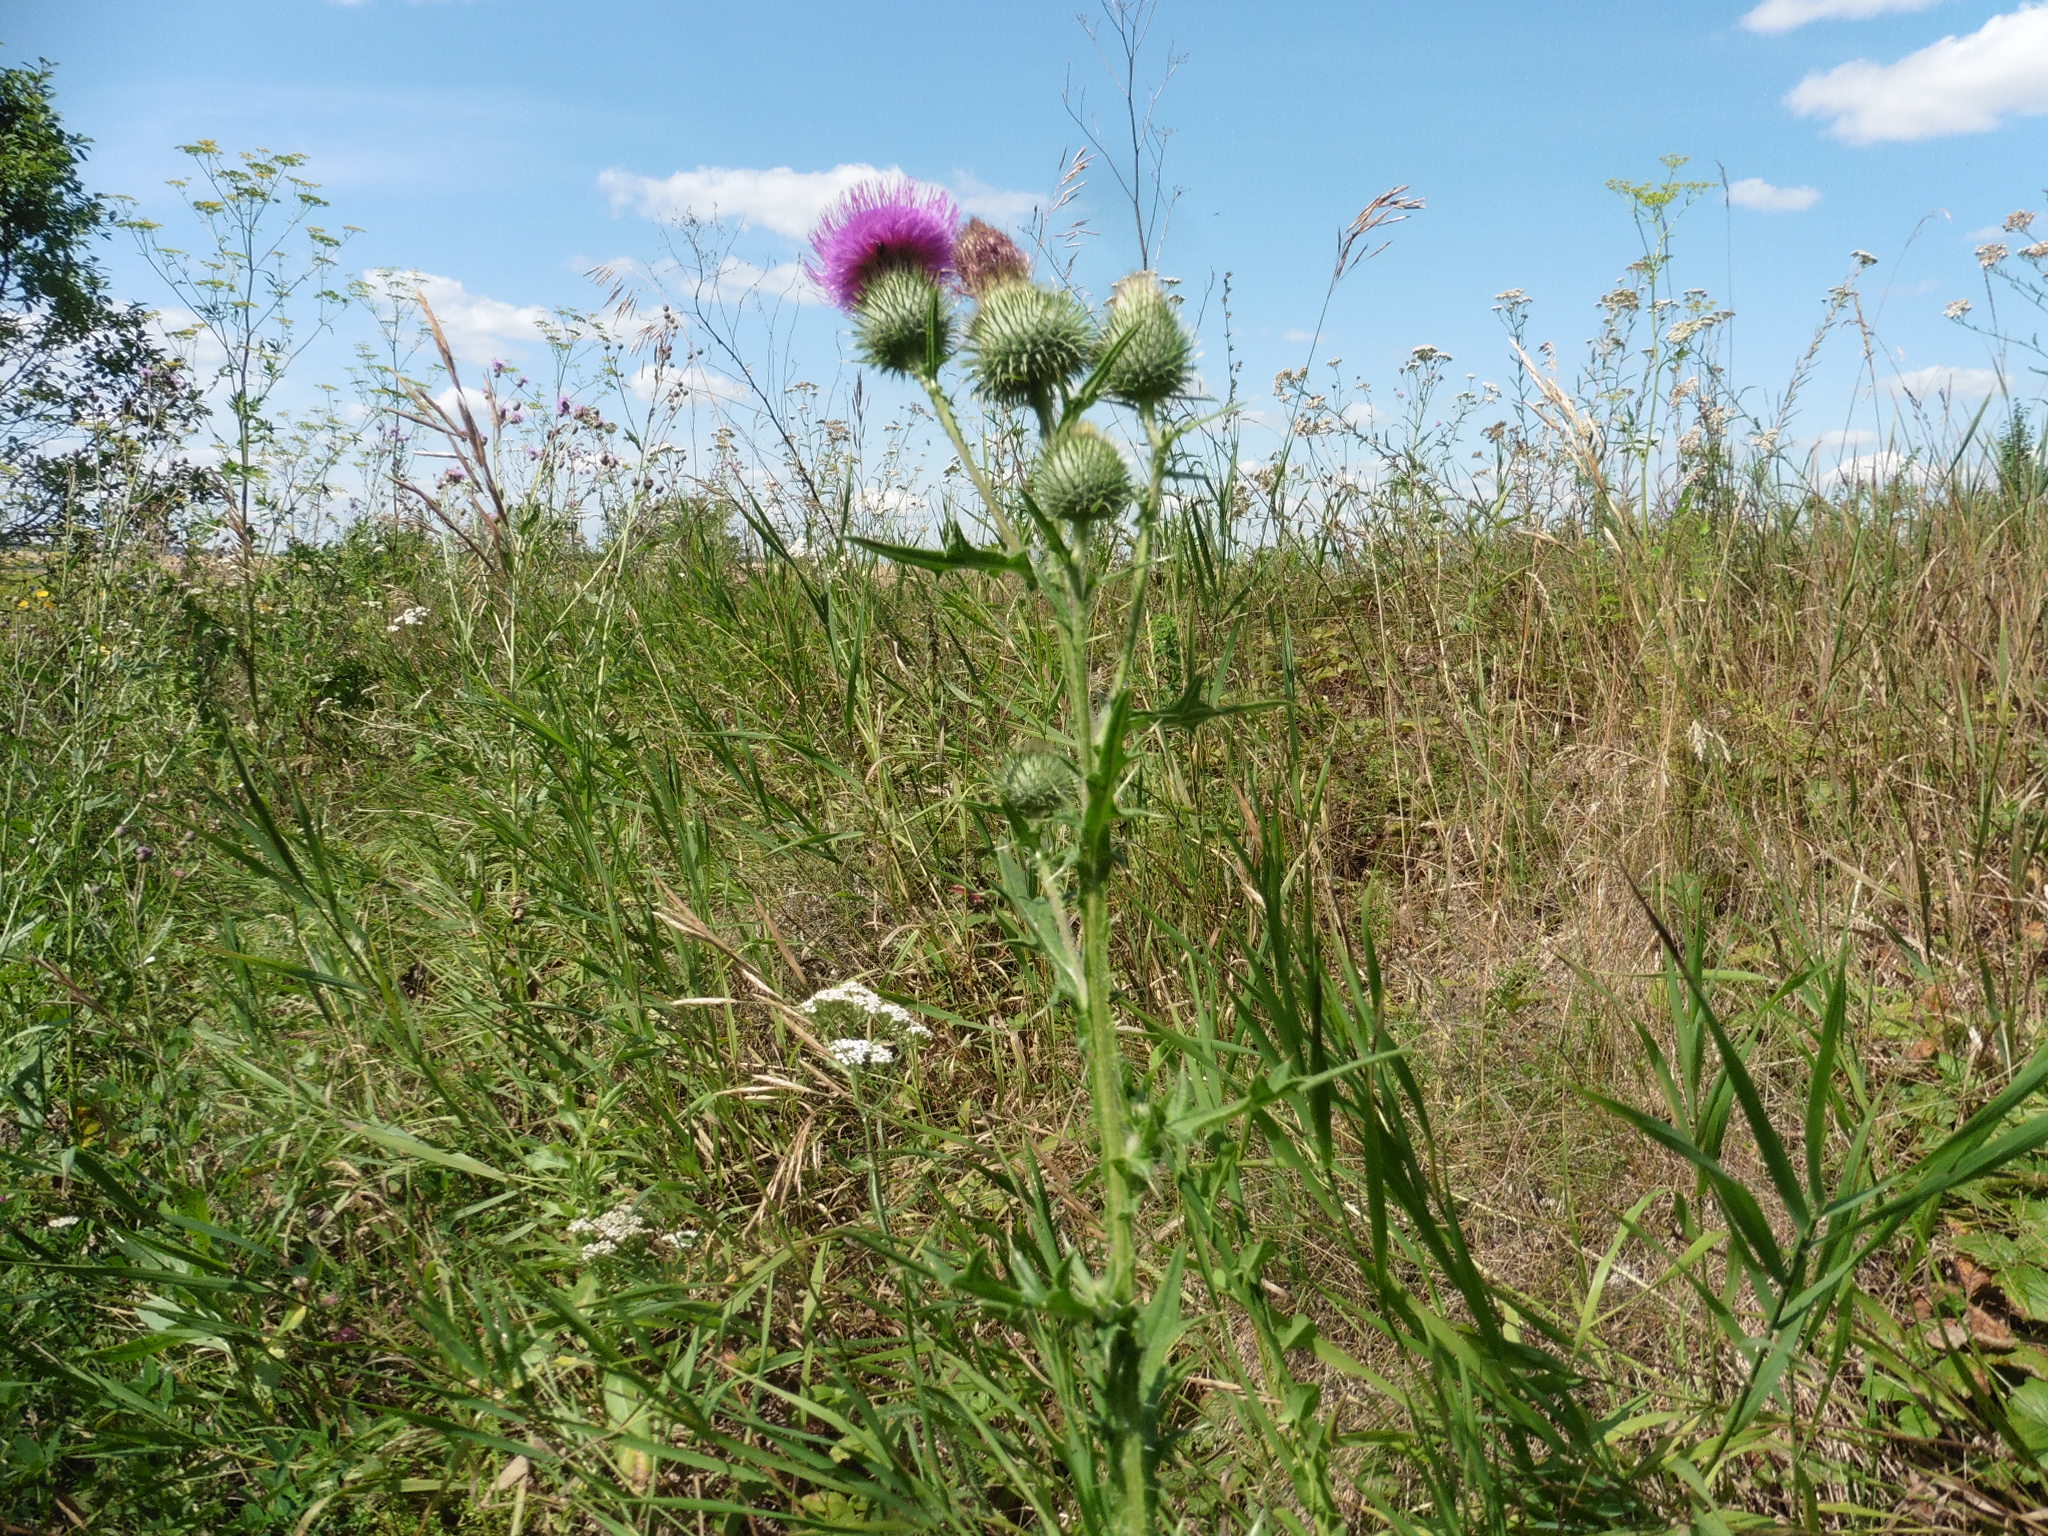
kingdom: Plantae
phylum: Tracheophyta
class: Magnoliopsida
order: Asterales
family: Asteraceae
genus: Cirsium
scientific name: Cirsium vulgare
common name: Bull thistle
